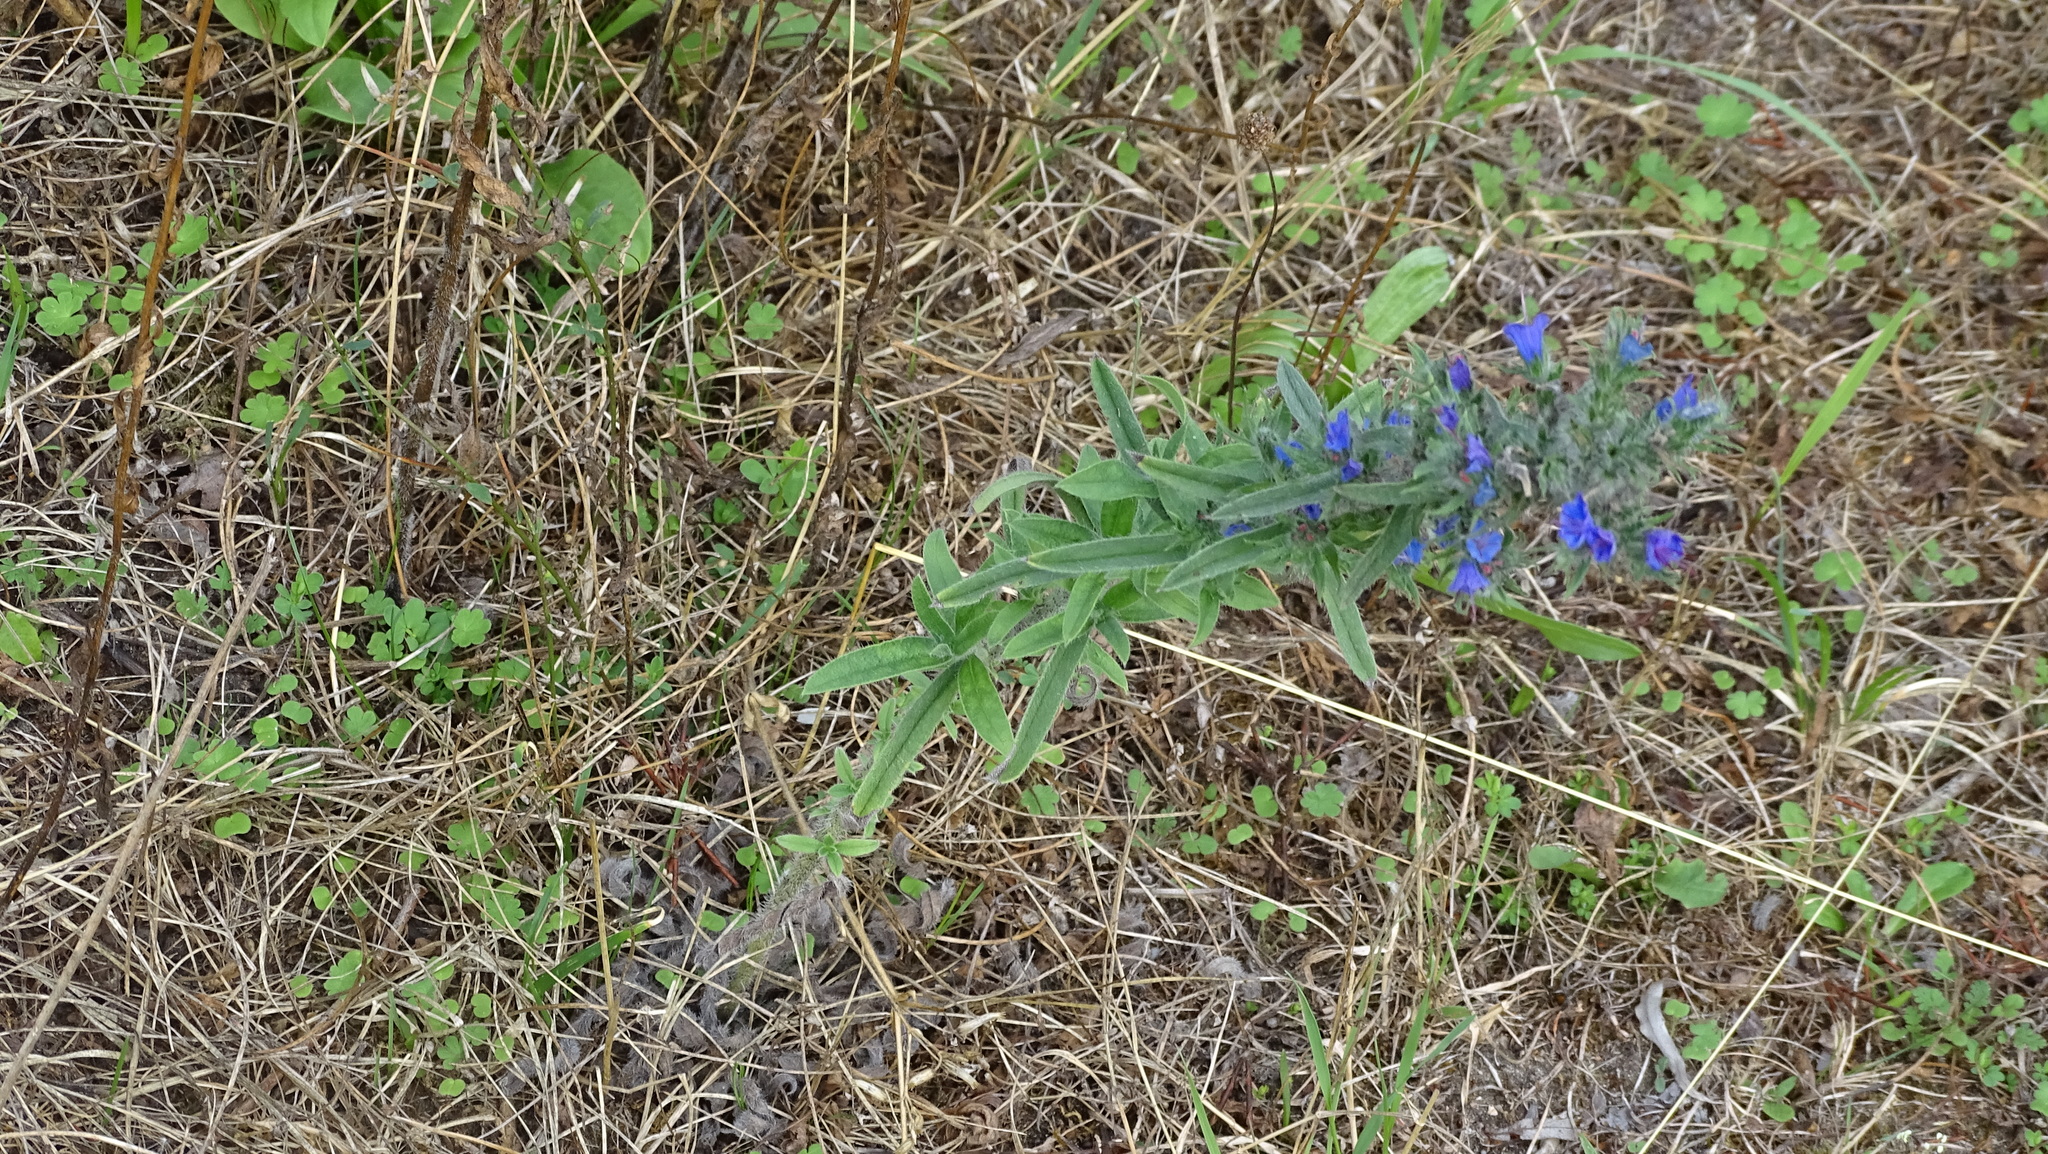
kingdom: Plantae
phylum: Tracheophyta
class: Magnoliopsida
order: Boraginales
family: Boraginaceae
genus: Echium
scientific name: Echium vulgare
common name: Common viper's bugloss
